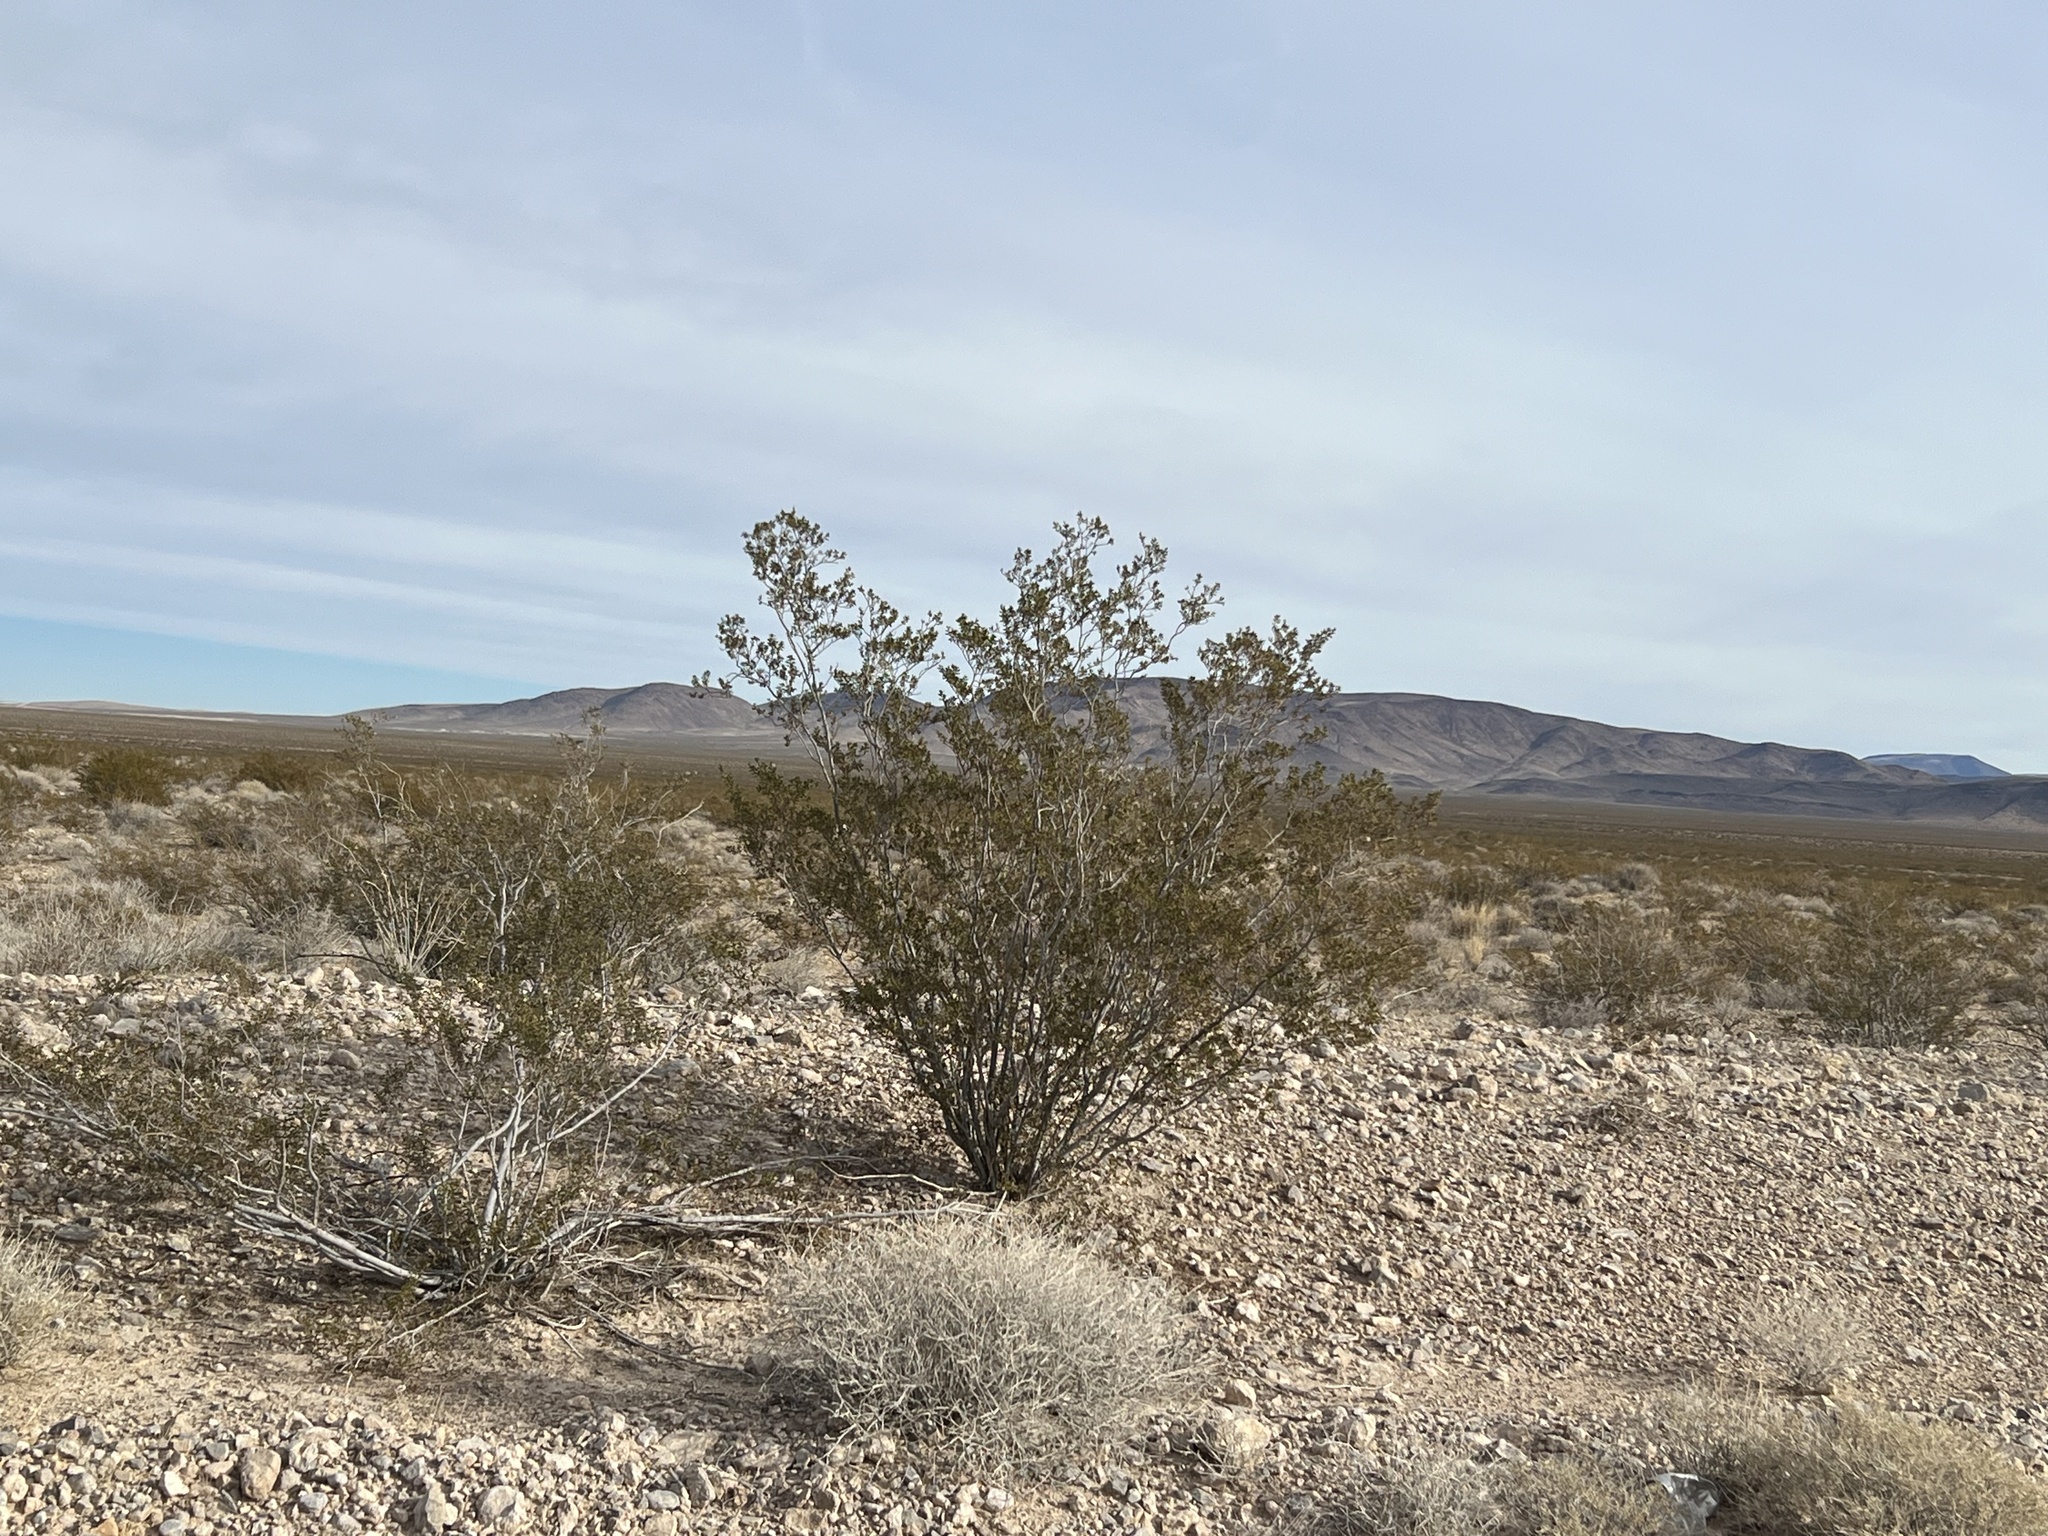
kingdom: Plantae
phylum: Tracheophyta
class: Magnoliopsida
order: Zygophyllales
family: Zygophyllaceae
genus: Larrea
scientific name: Larrea tridentata
